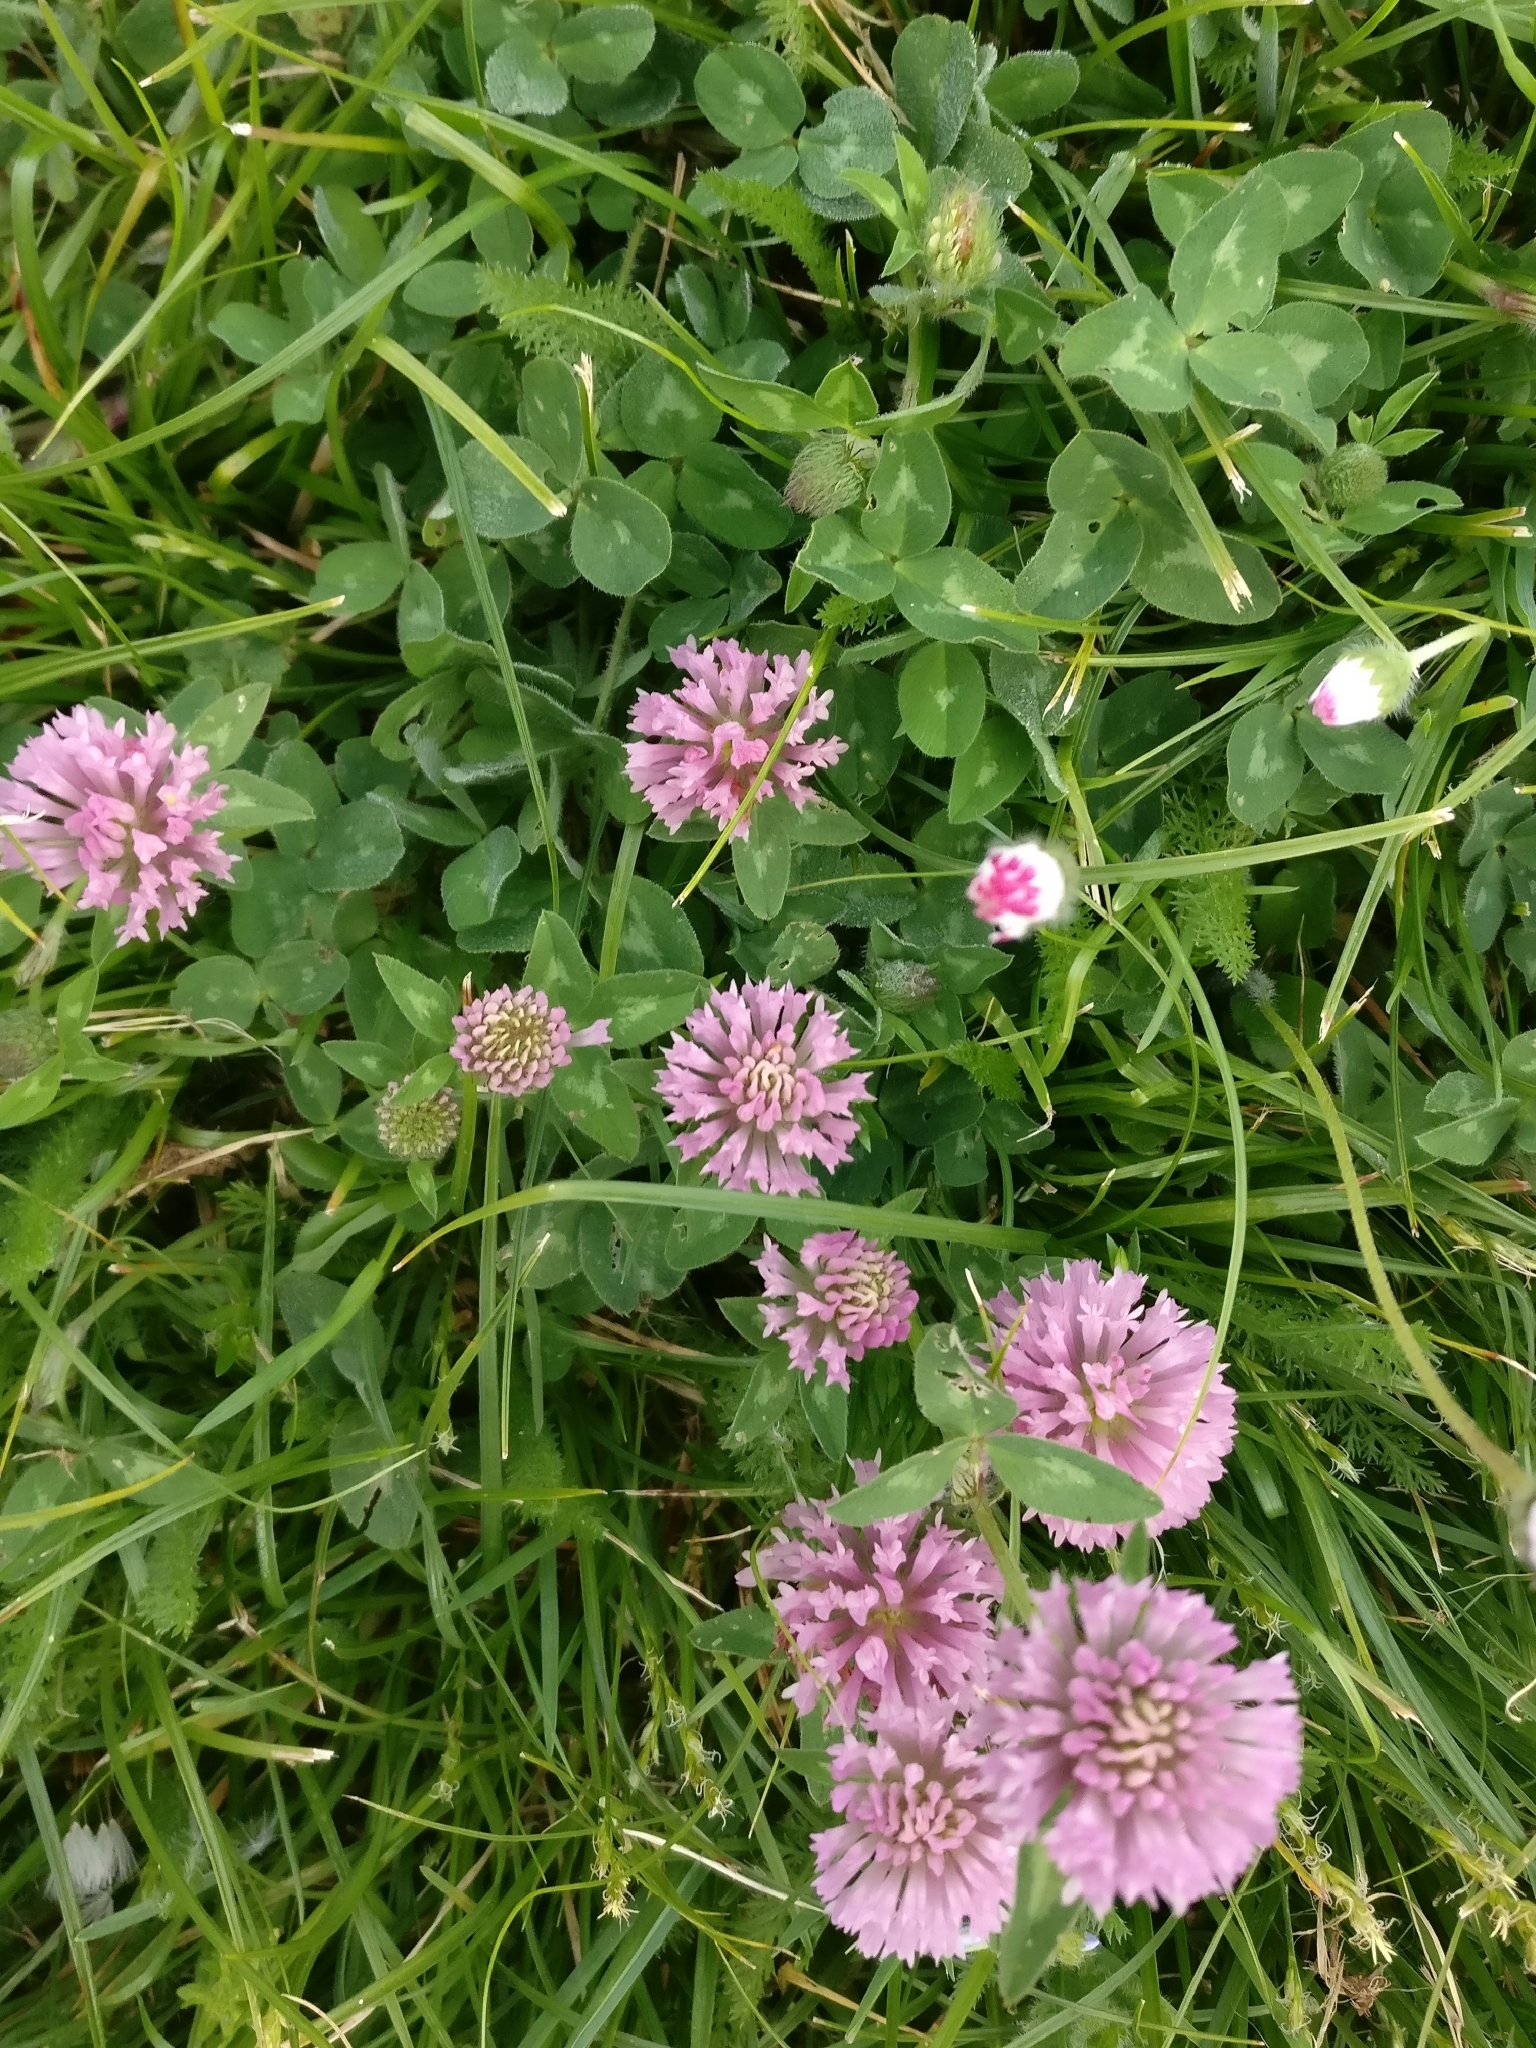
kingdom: Plantae
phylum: Tracheophyta
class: Magnoliopsida
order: Fabales
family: Fabaceae
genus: Trifolium
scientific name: Trifolium pratense
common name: Red clover
